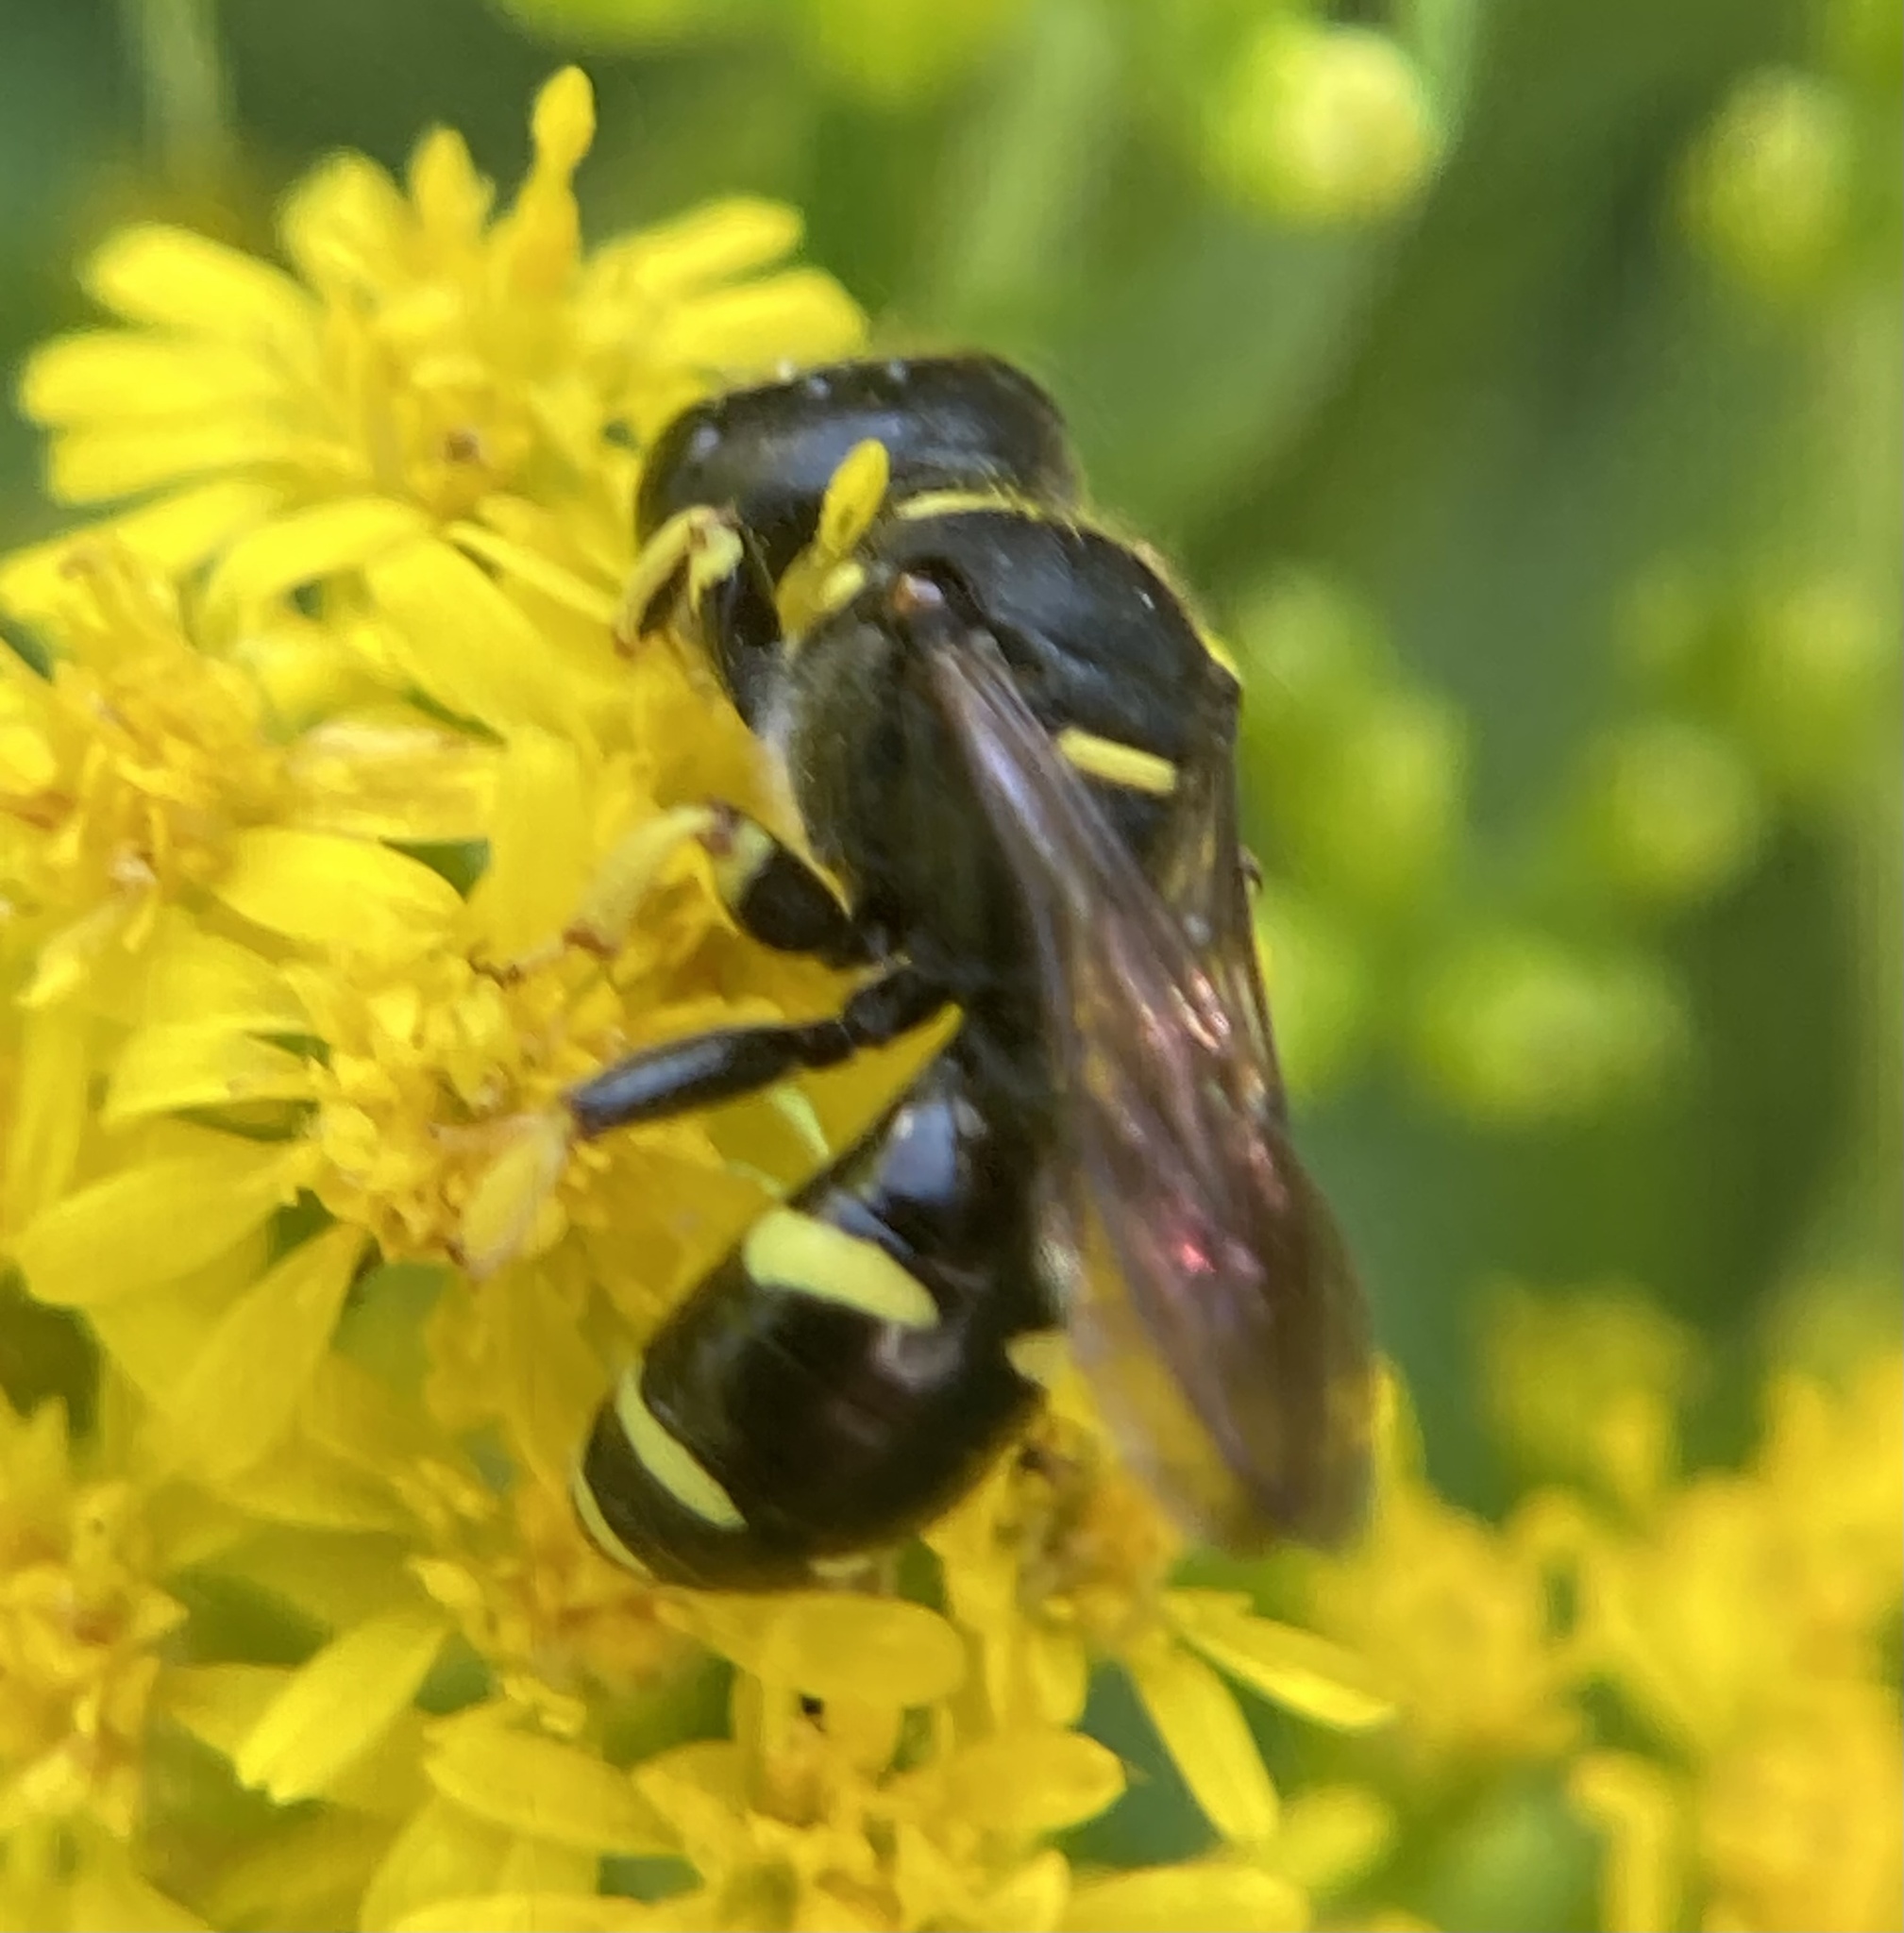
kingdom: Animalia
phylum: Arthropoda
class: Insecta
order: Hymenoptera
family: Crabronidae
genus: Ectemnius
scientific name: Ectemnius continuus
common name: Common ectemnius
